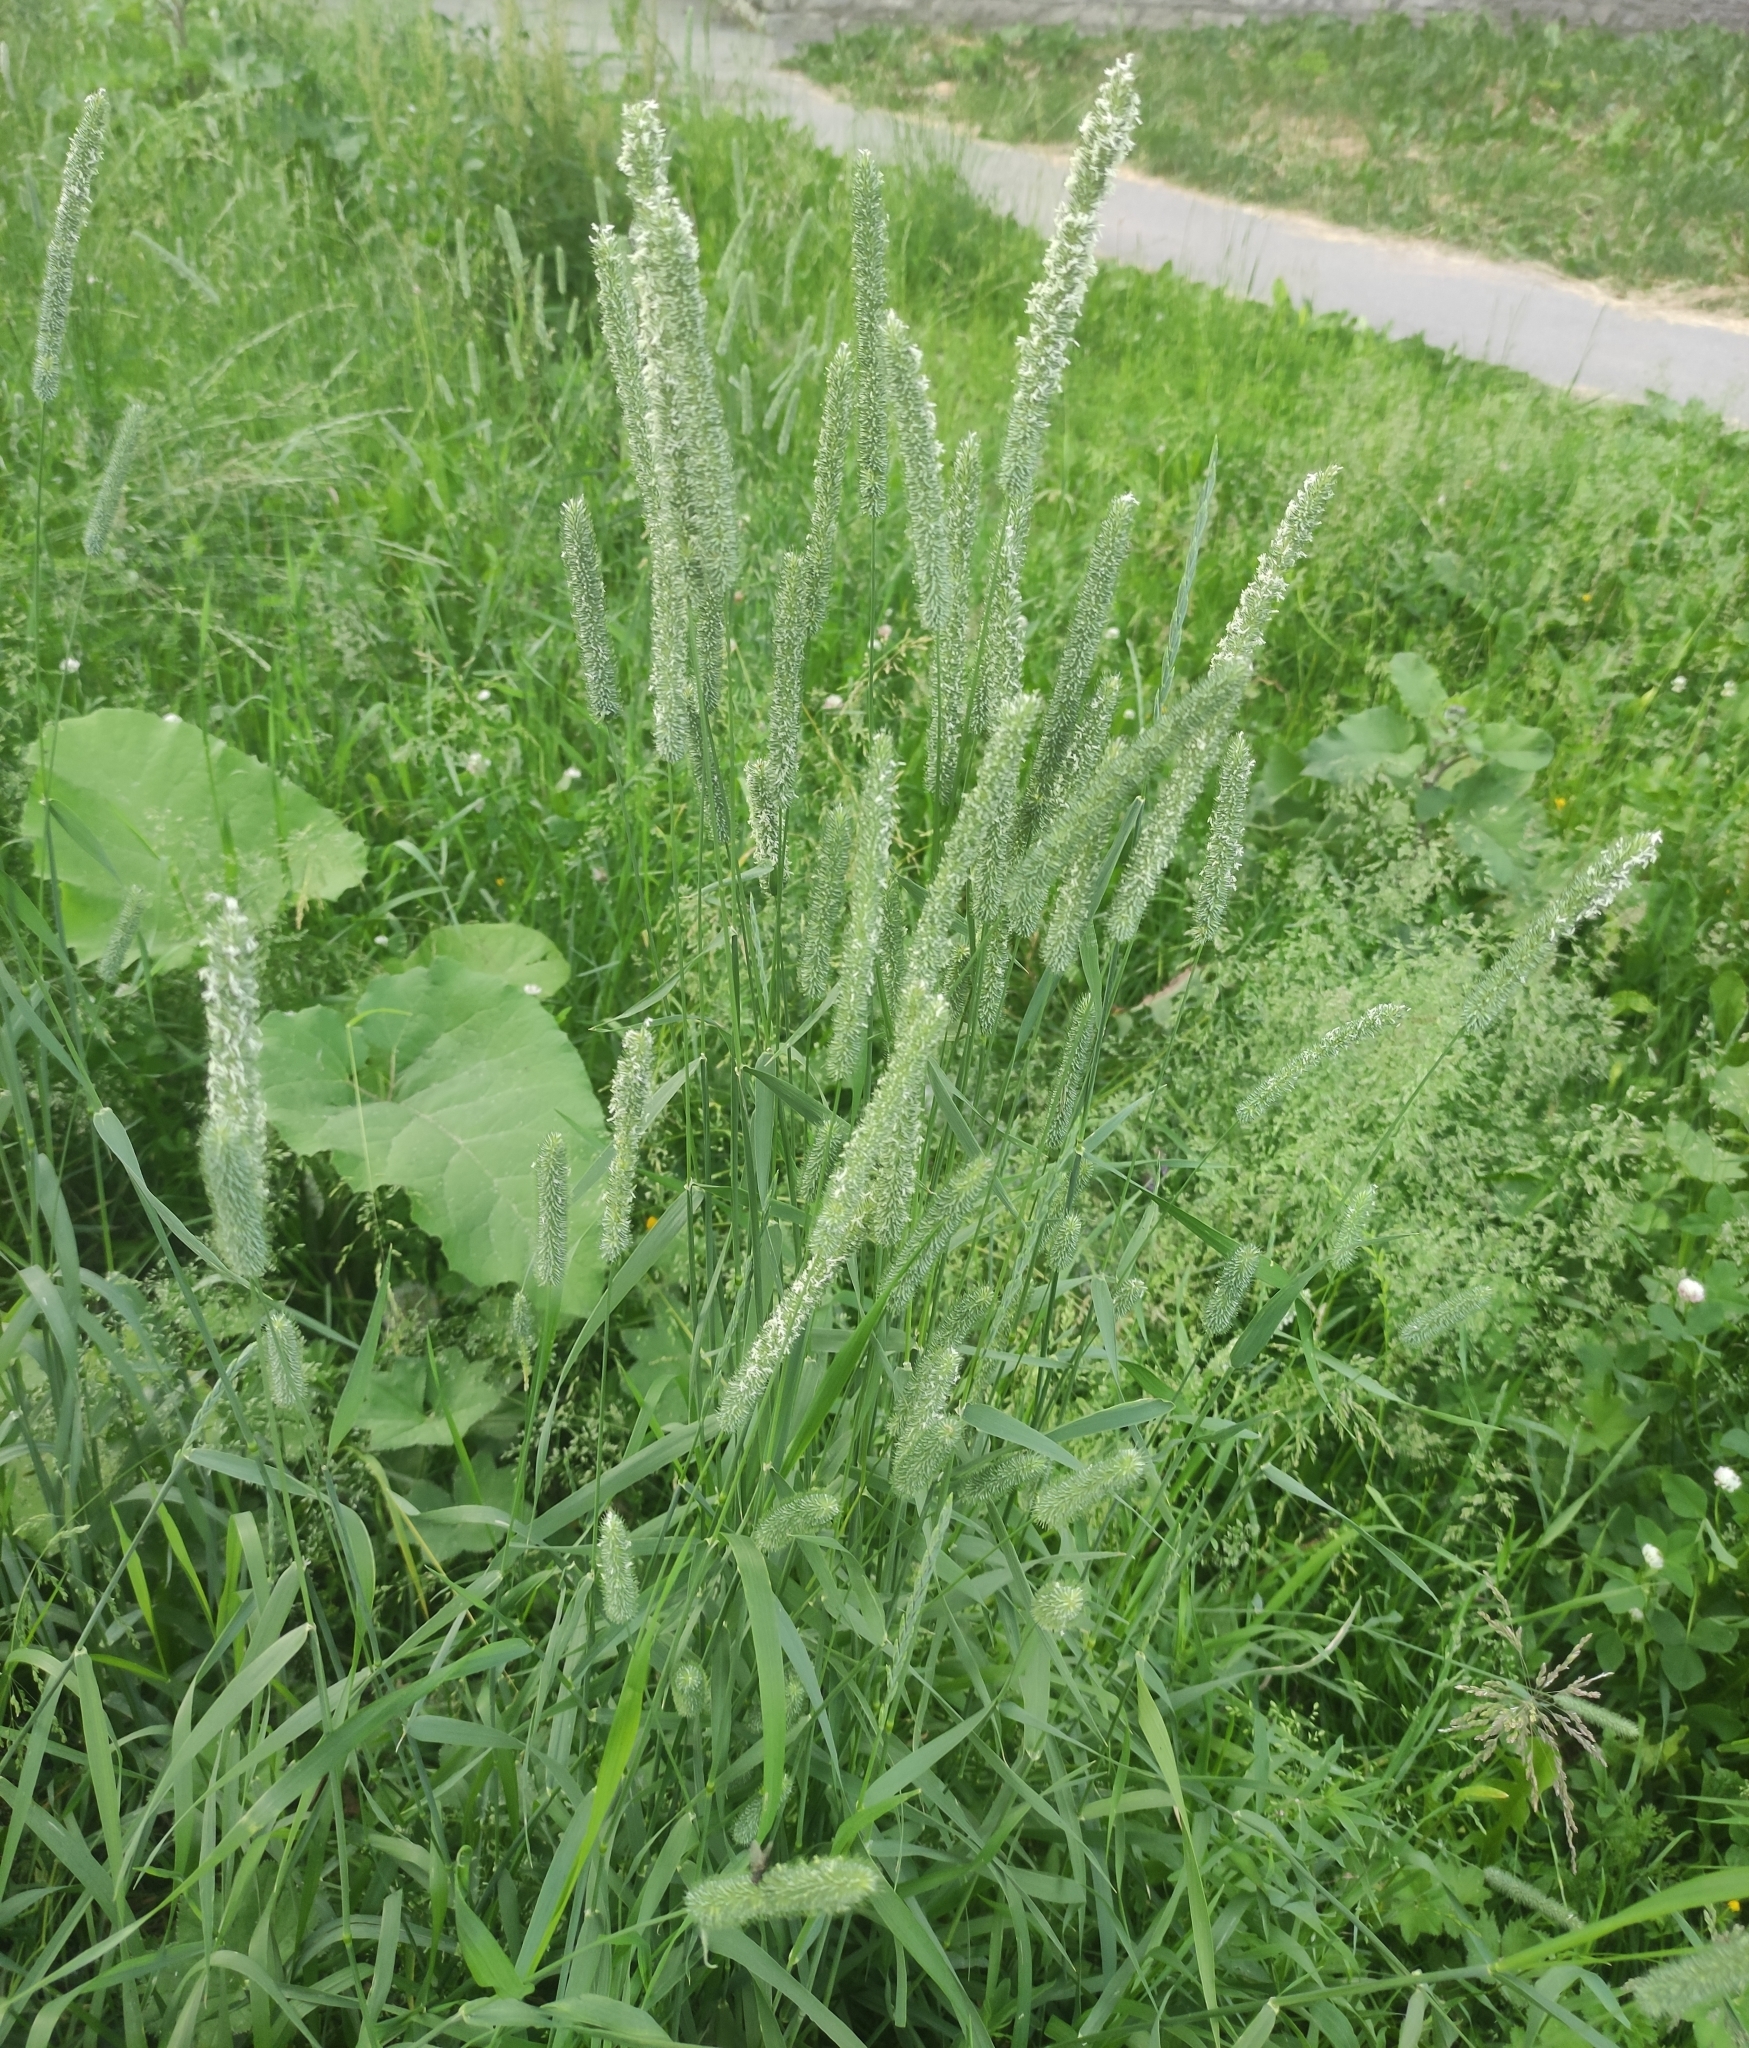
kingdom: Plantae
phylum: Tracheophyta
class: Liliopsida
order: Poales
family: Poaceae
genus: Phleum
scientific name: Phleum pratense
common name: Timothy grass
